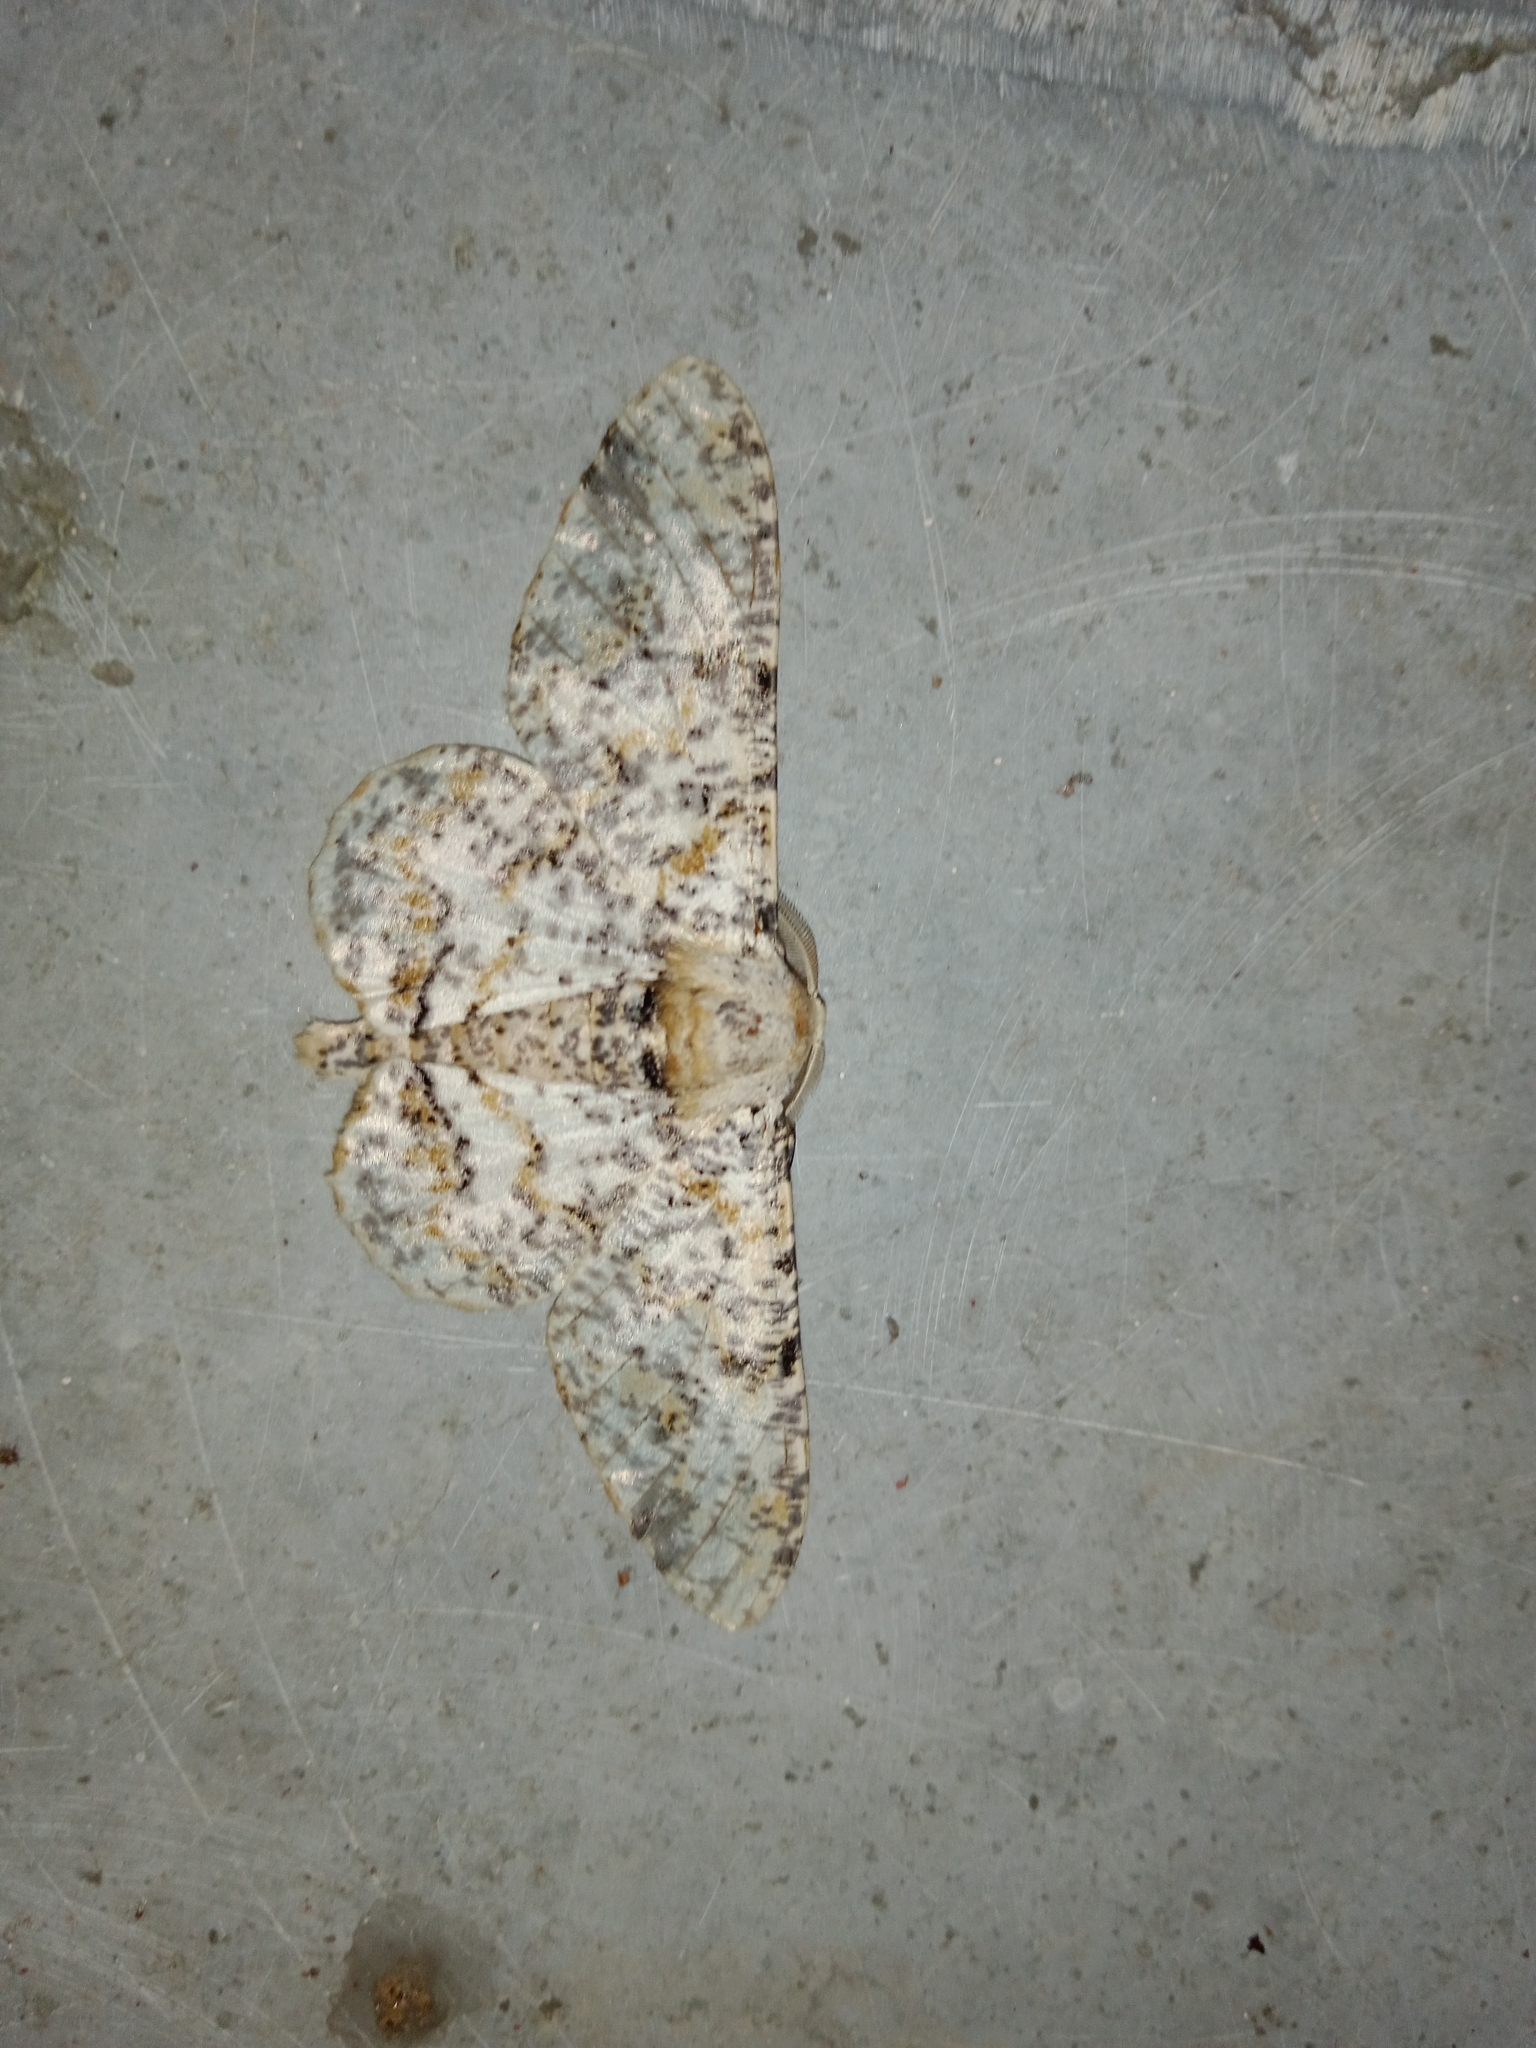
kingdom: Animalia
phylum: Arthropoda
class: Insecta
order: Lepidoptera
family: Geometridae
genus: Biston
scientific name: Biston suppressaria
